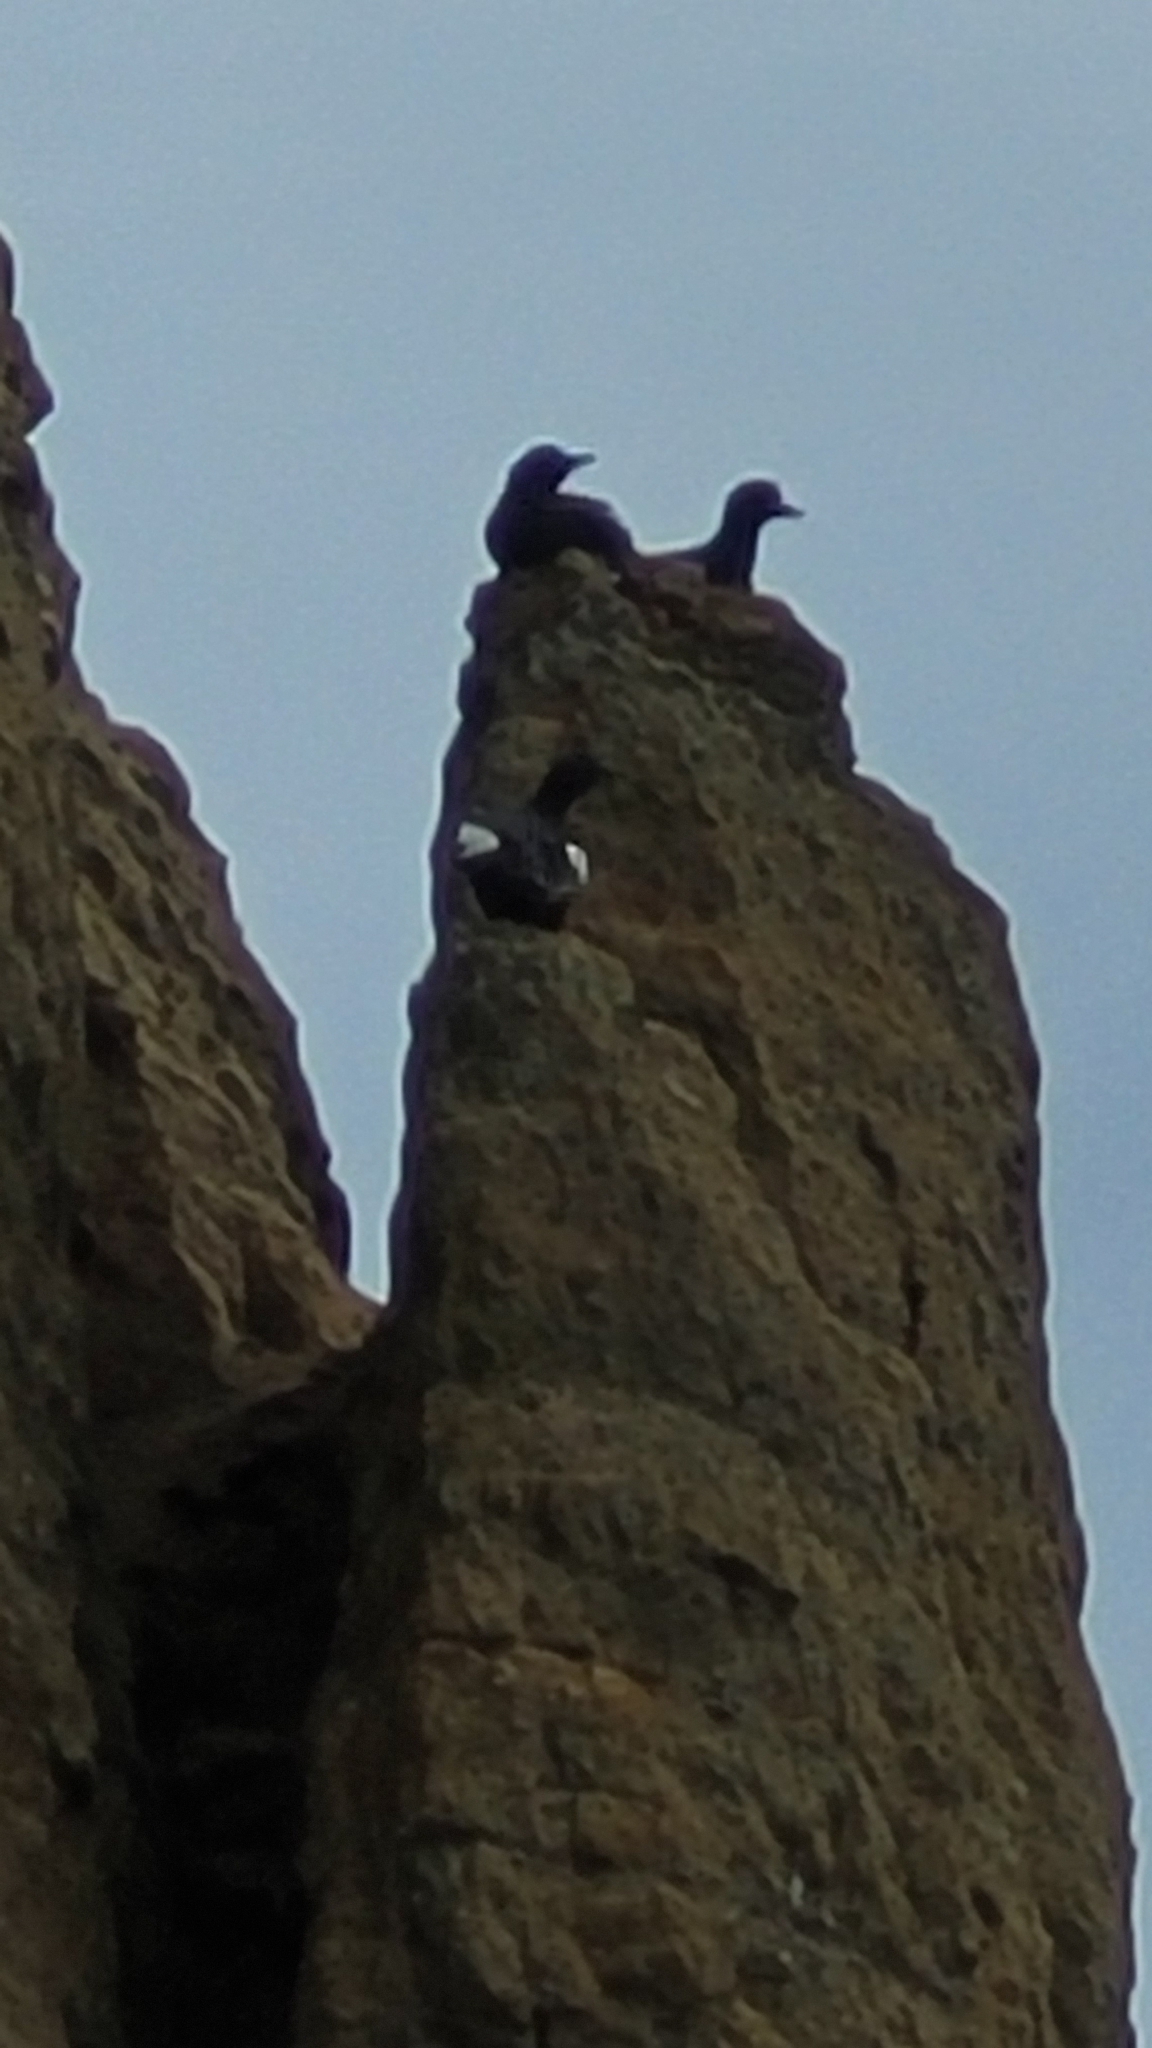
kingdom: Animalia
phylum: Chordata
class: Aves
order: Charadriiformes
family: Alcidae
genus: Cepphus
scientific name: Cepphus columba
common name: Pigeon guillemot
